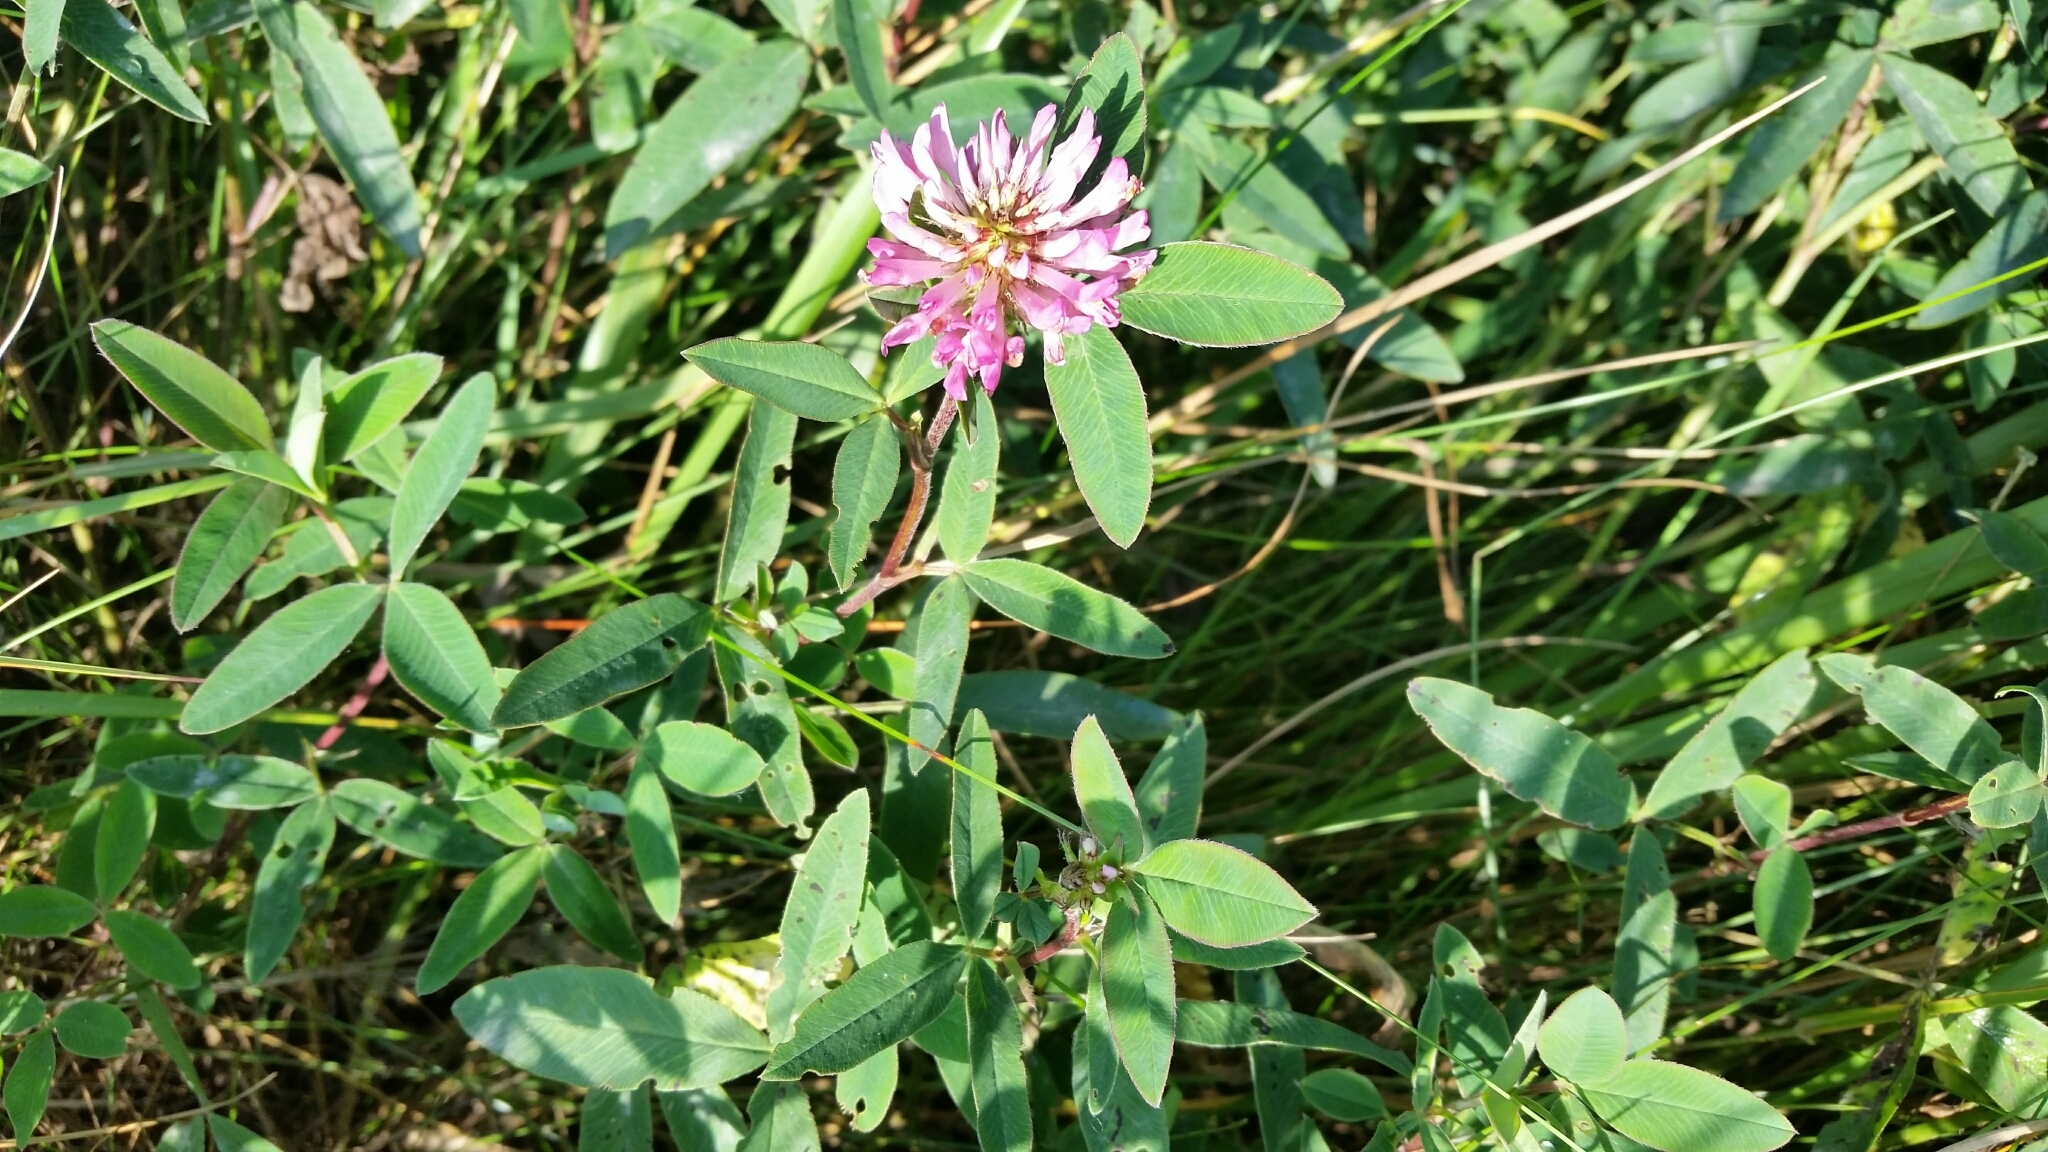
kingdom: Plantae
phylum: Tracheophyta
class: Magnoliopsida
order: Fabales
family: Fabaceae
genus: Trifolium
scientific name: Trifolium medium
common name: Zigzag clover
